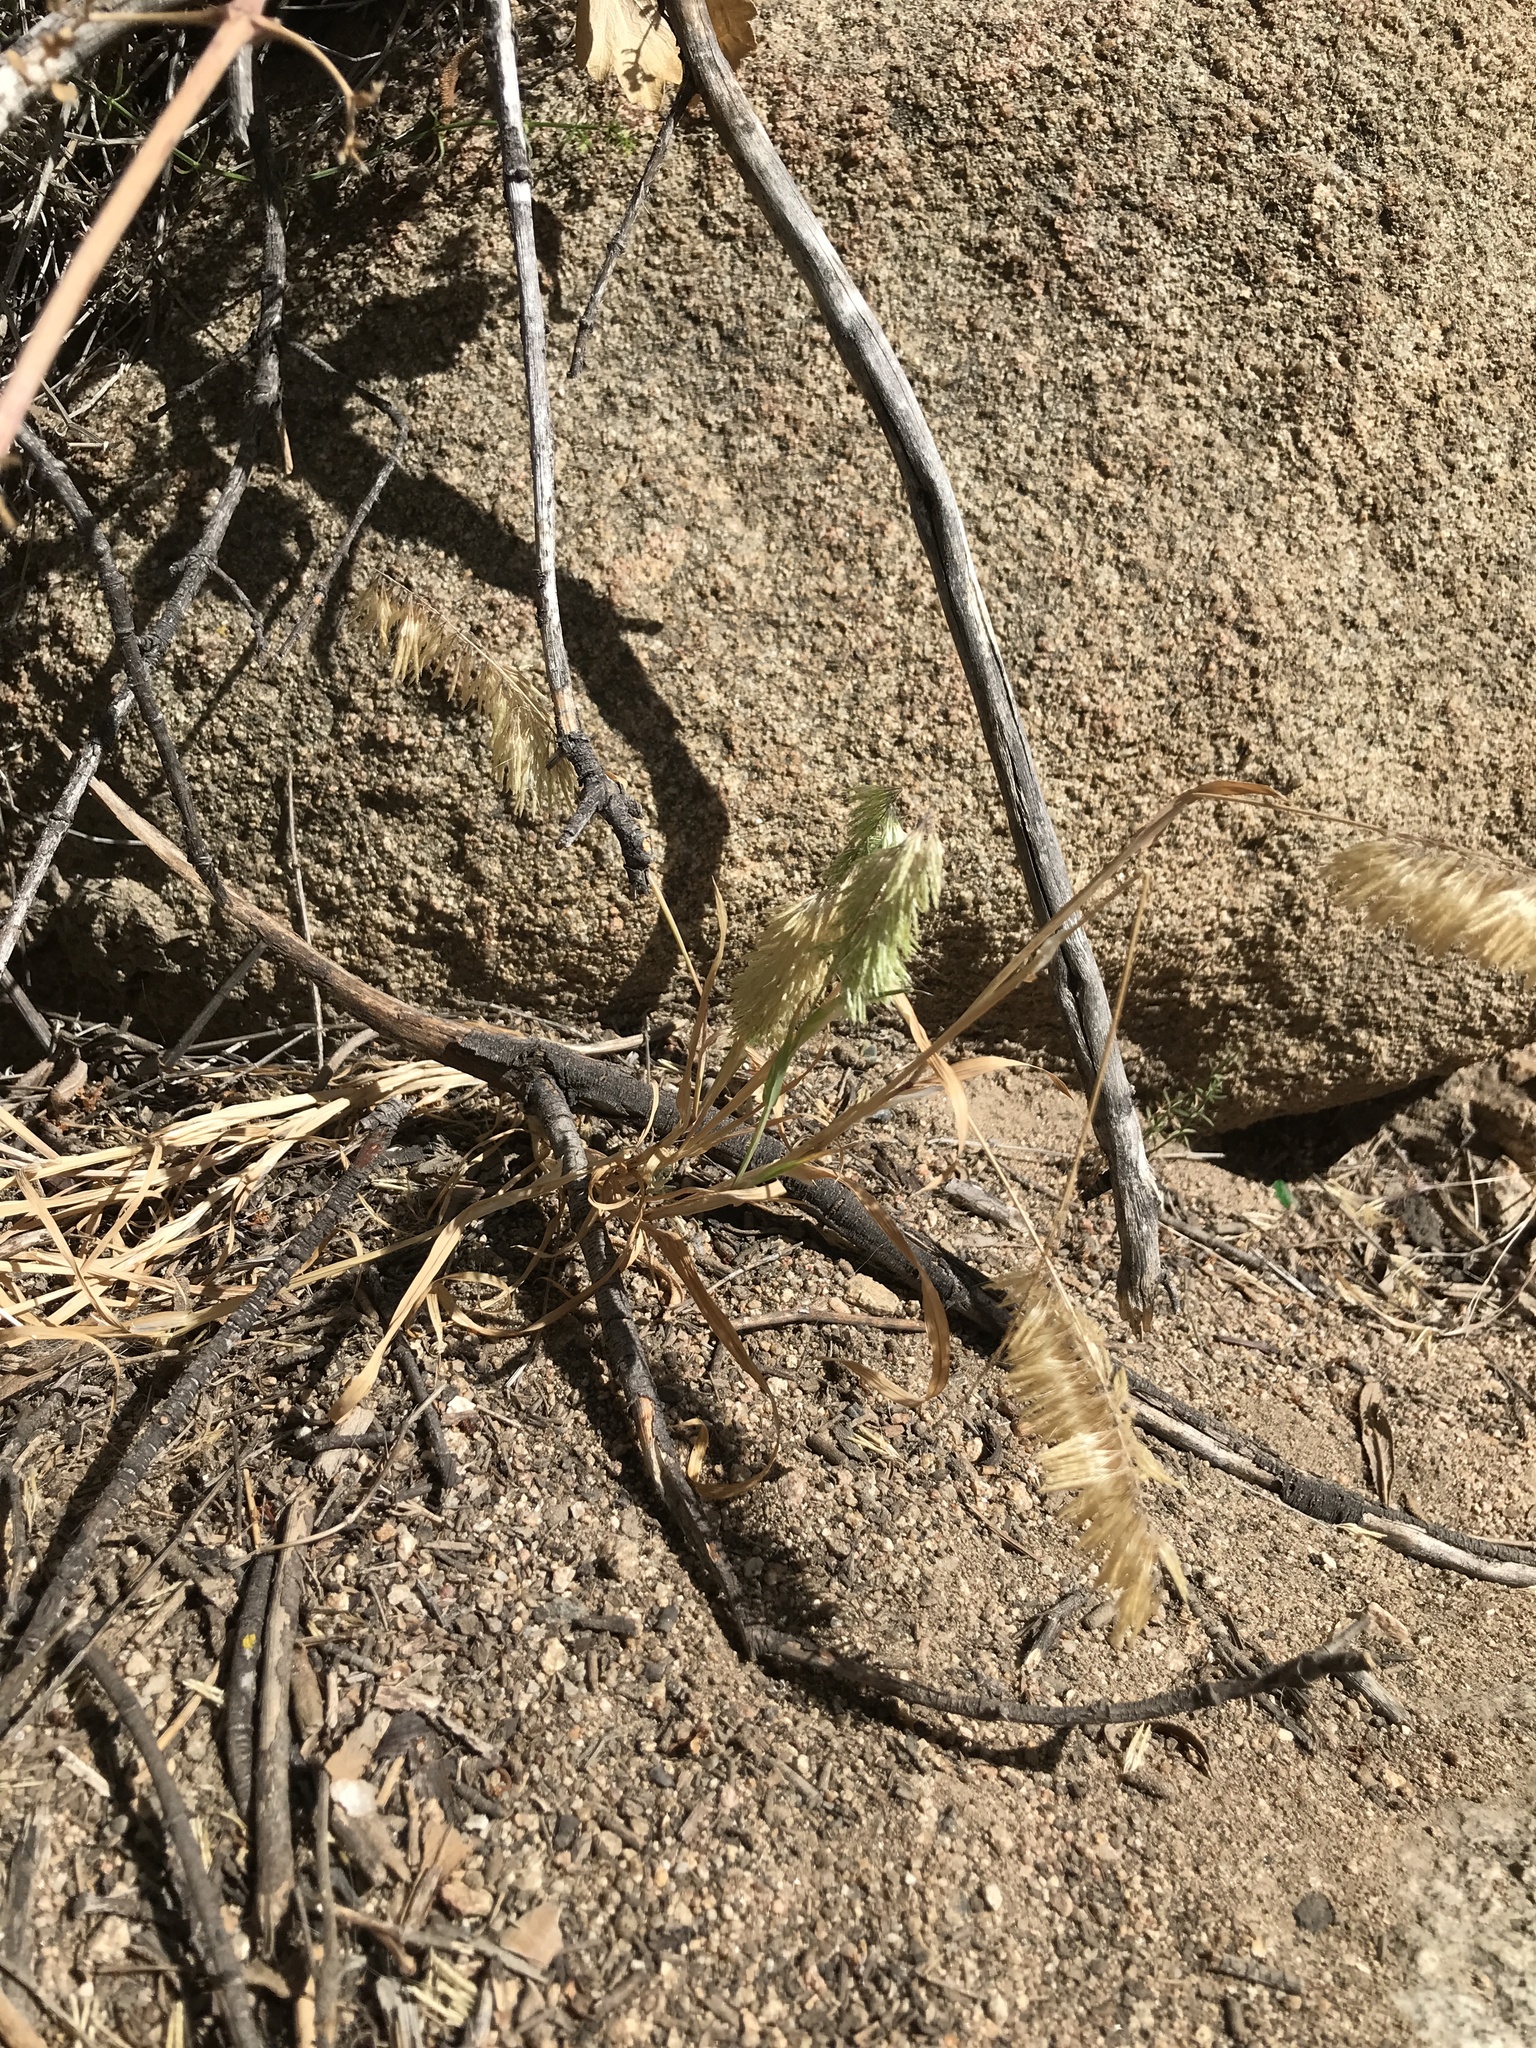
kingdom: Plantae
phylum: Tracheophyta
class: Liliopsida
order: Poales
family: Poaceae
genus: Lamarckia
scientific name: Lamarckia aurea
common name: Golden dog's-tail
